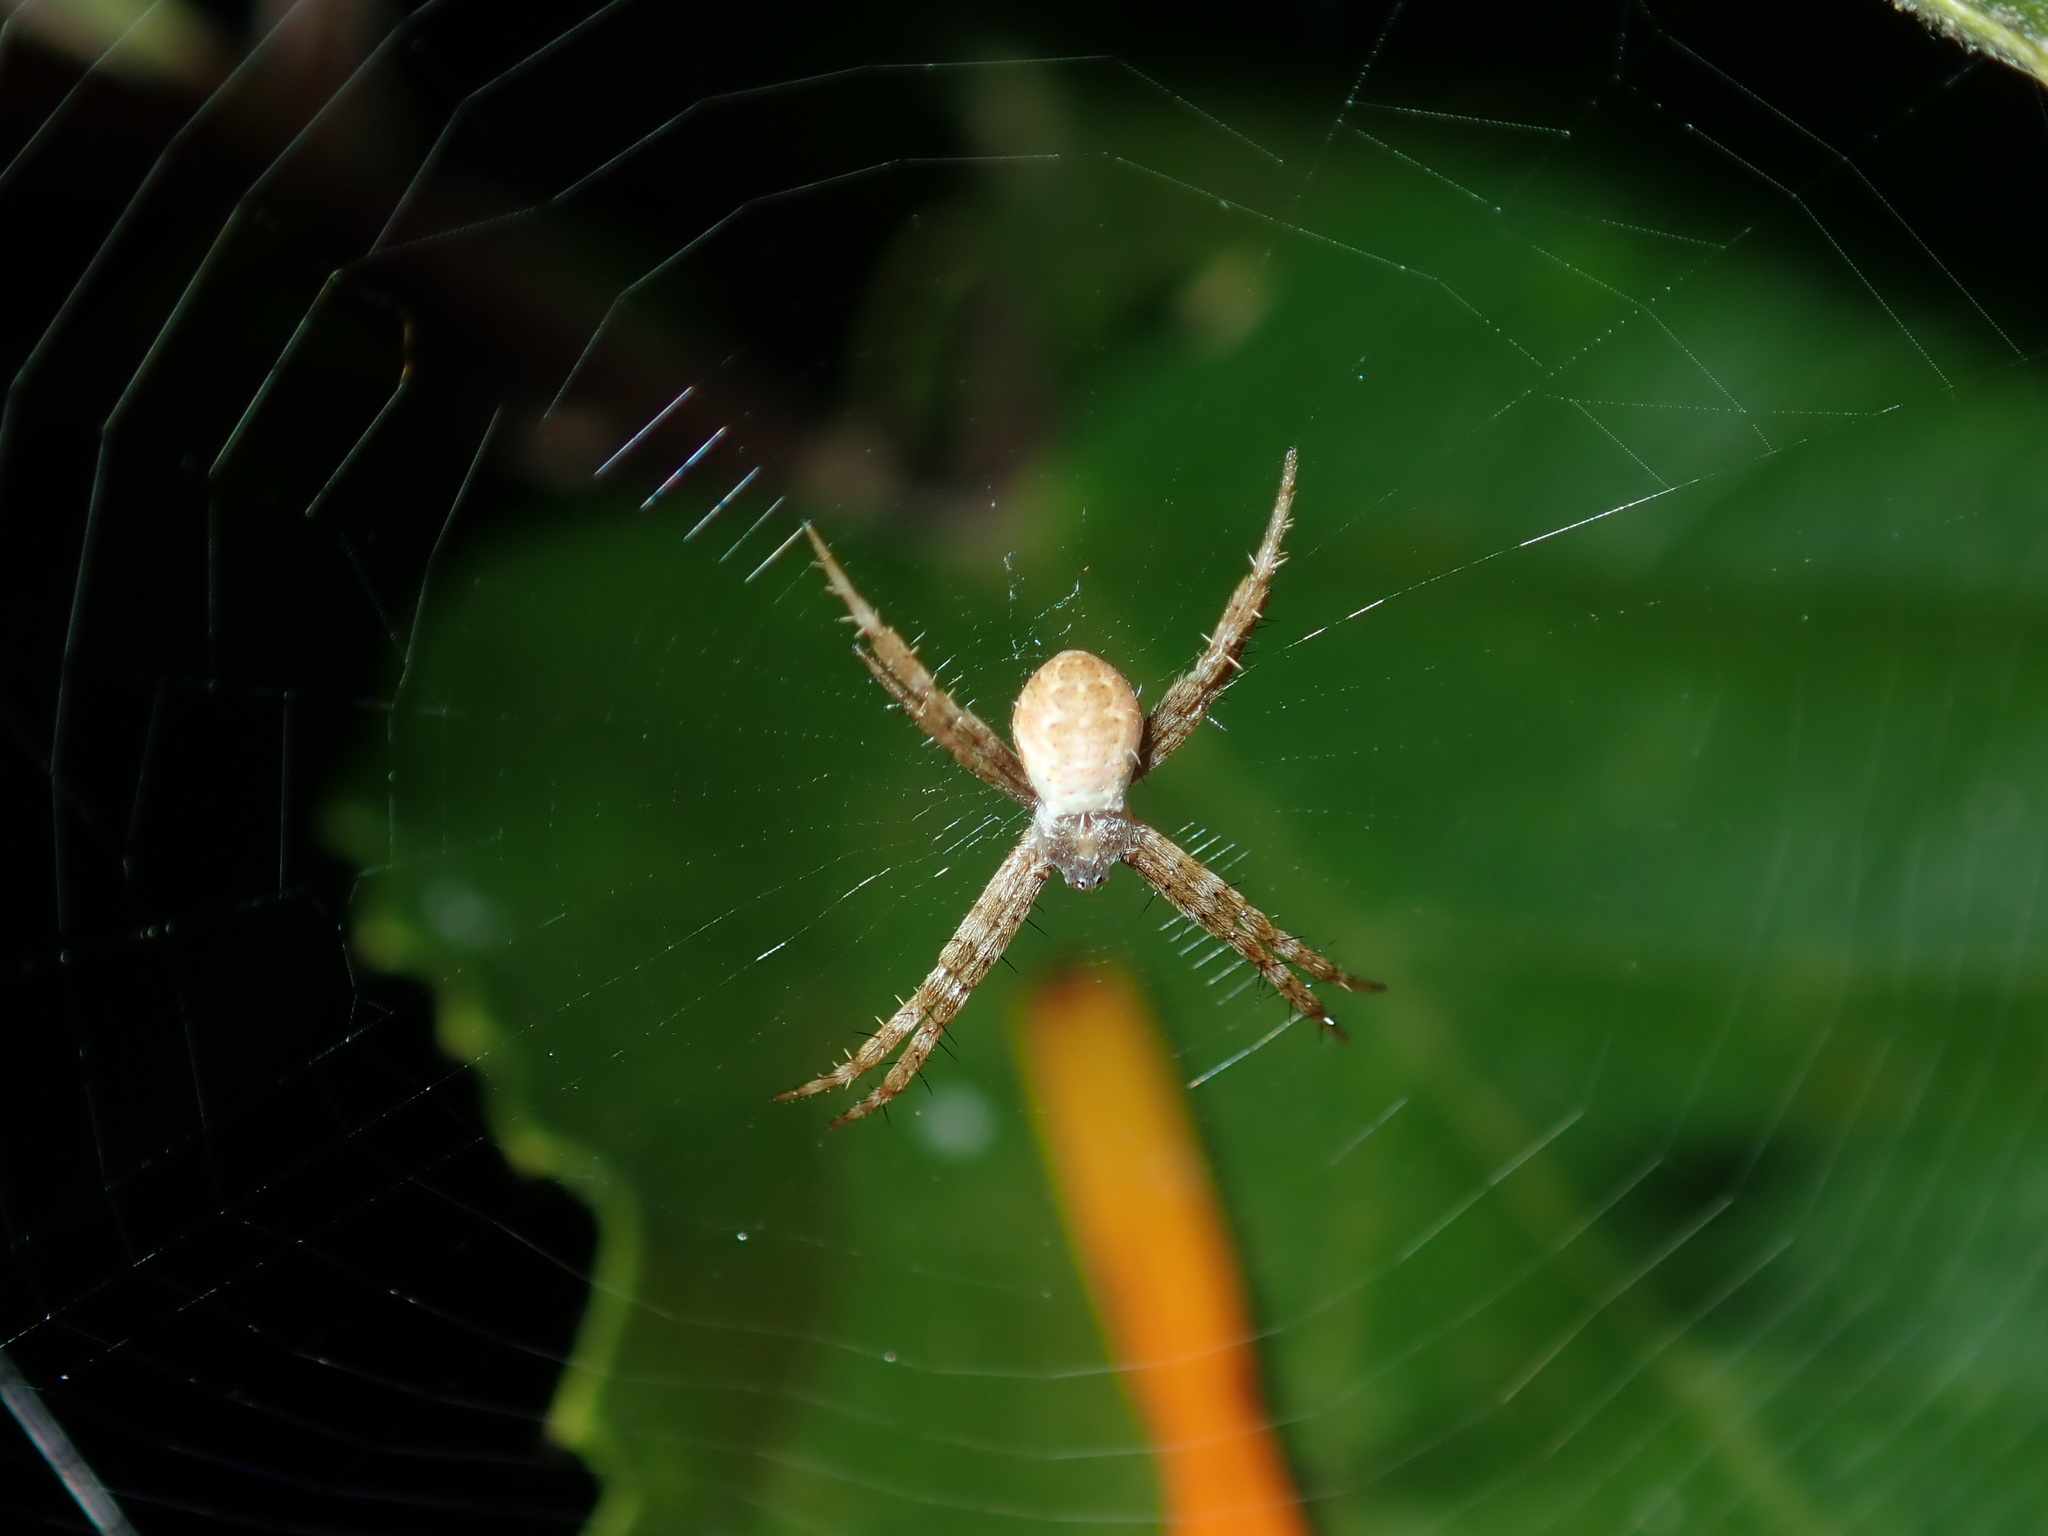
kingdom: Animalia
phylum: Arthropoda
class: Arachnida
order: Araneae
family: Araneidae
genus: Argiope
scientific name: Argiope keyserlingi
